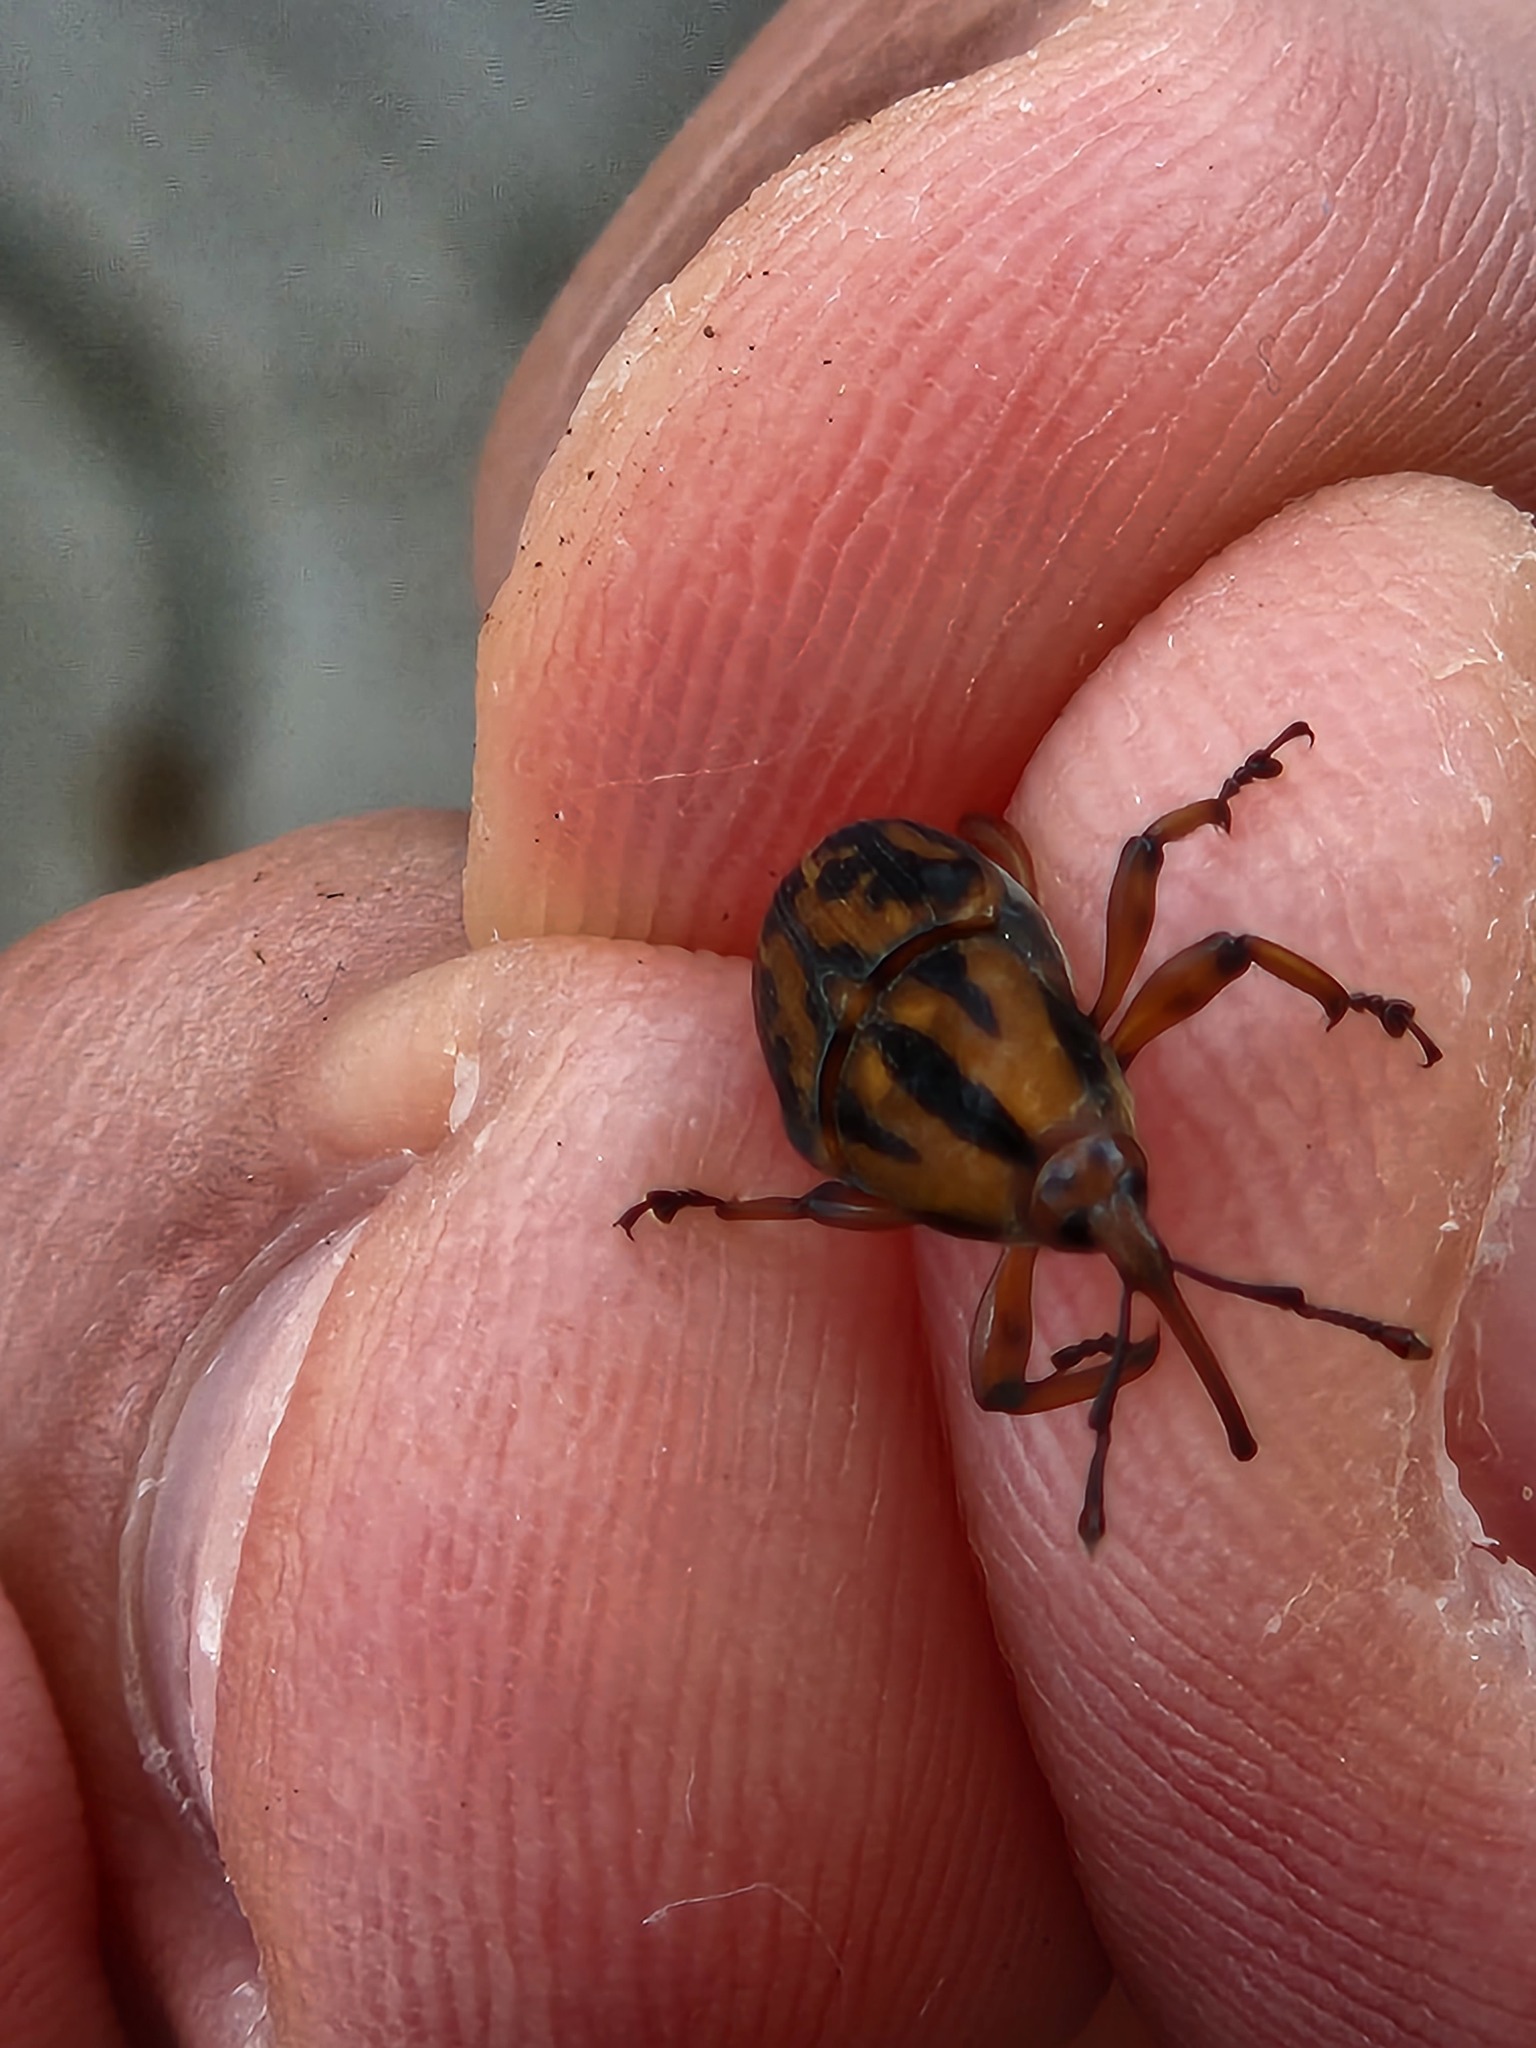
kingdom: Animalia
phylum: Arthropoda
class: Insecta
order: Coleoptera
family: Dryophthoridae
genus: Metamasius
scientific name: Metamasius hemipterus
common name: Weevil
